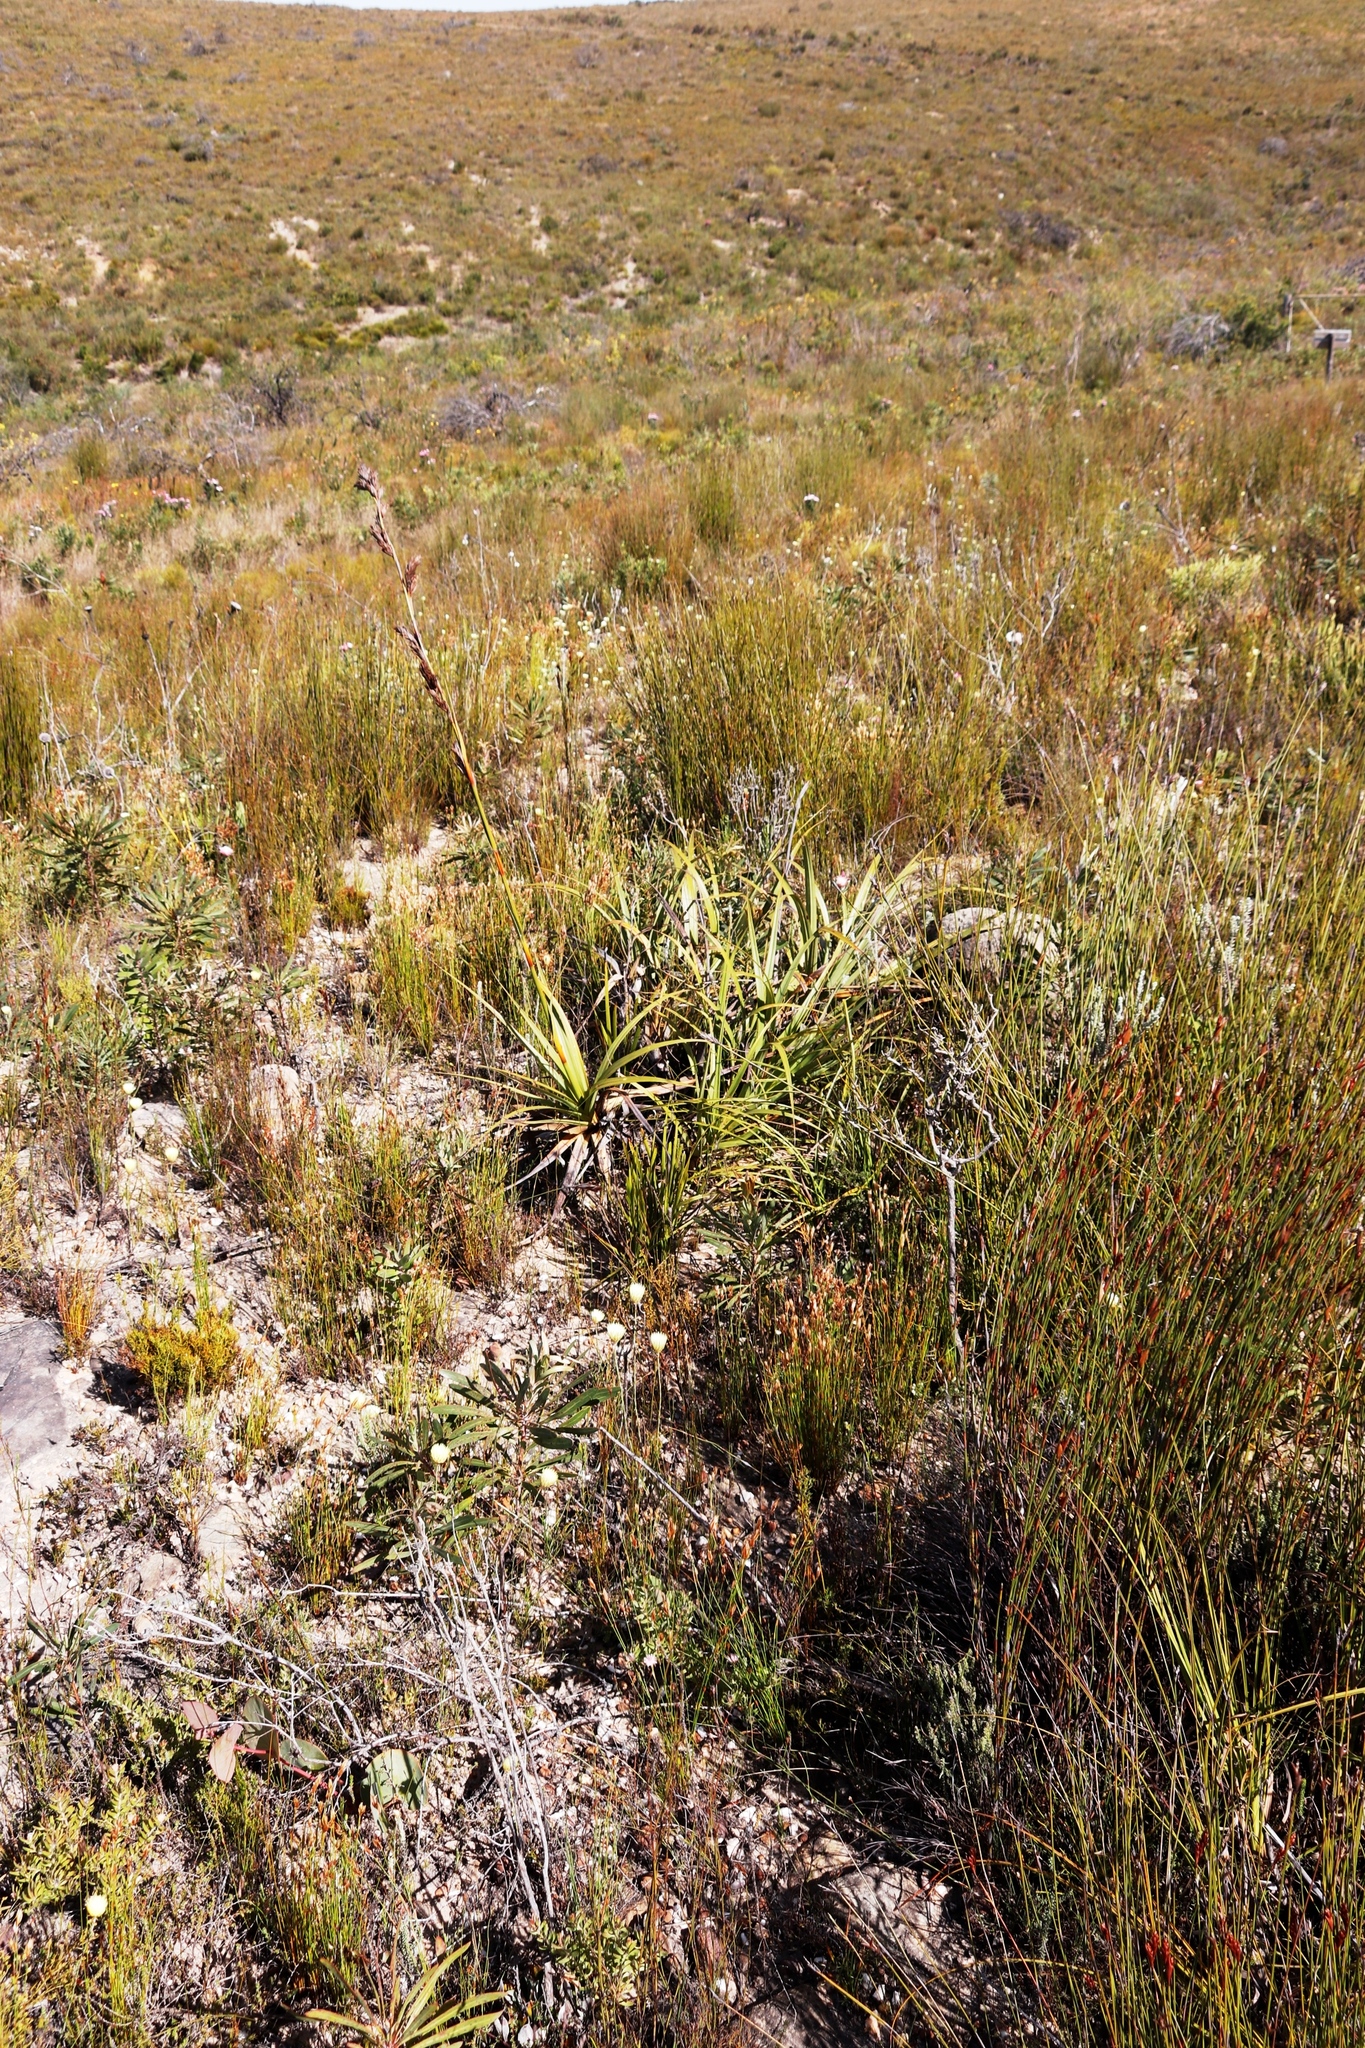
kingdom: Plantae
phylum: Tracheophyta
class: Liliopsida
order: Poales
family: Cyperaceae
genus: Tetraria
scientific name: Tetraria thermalis
